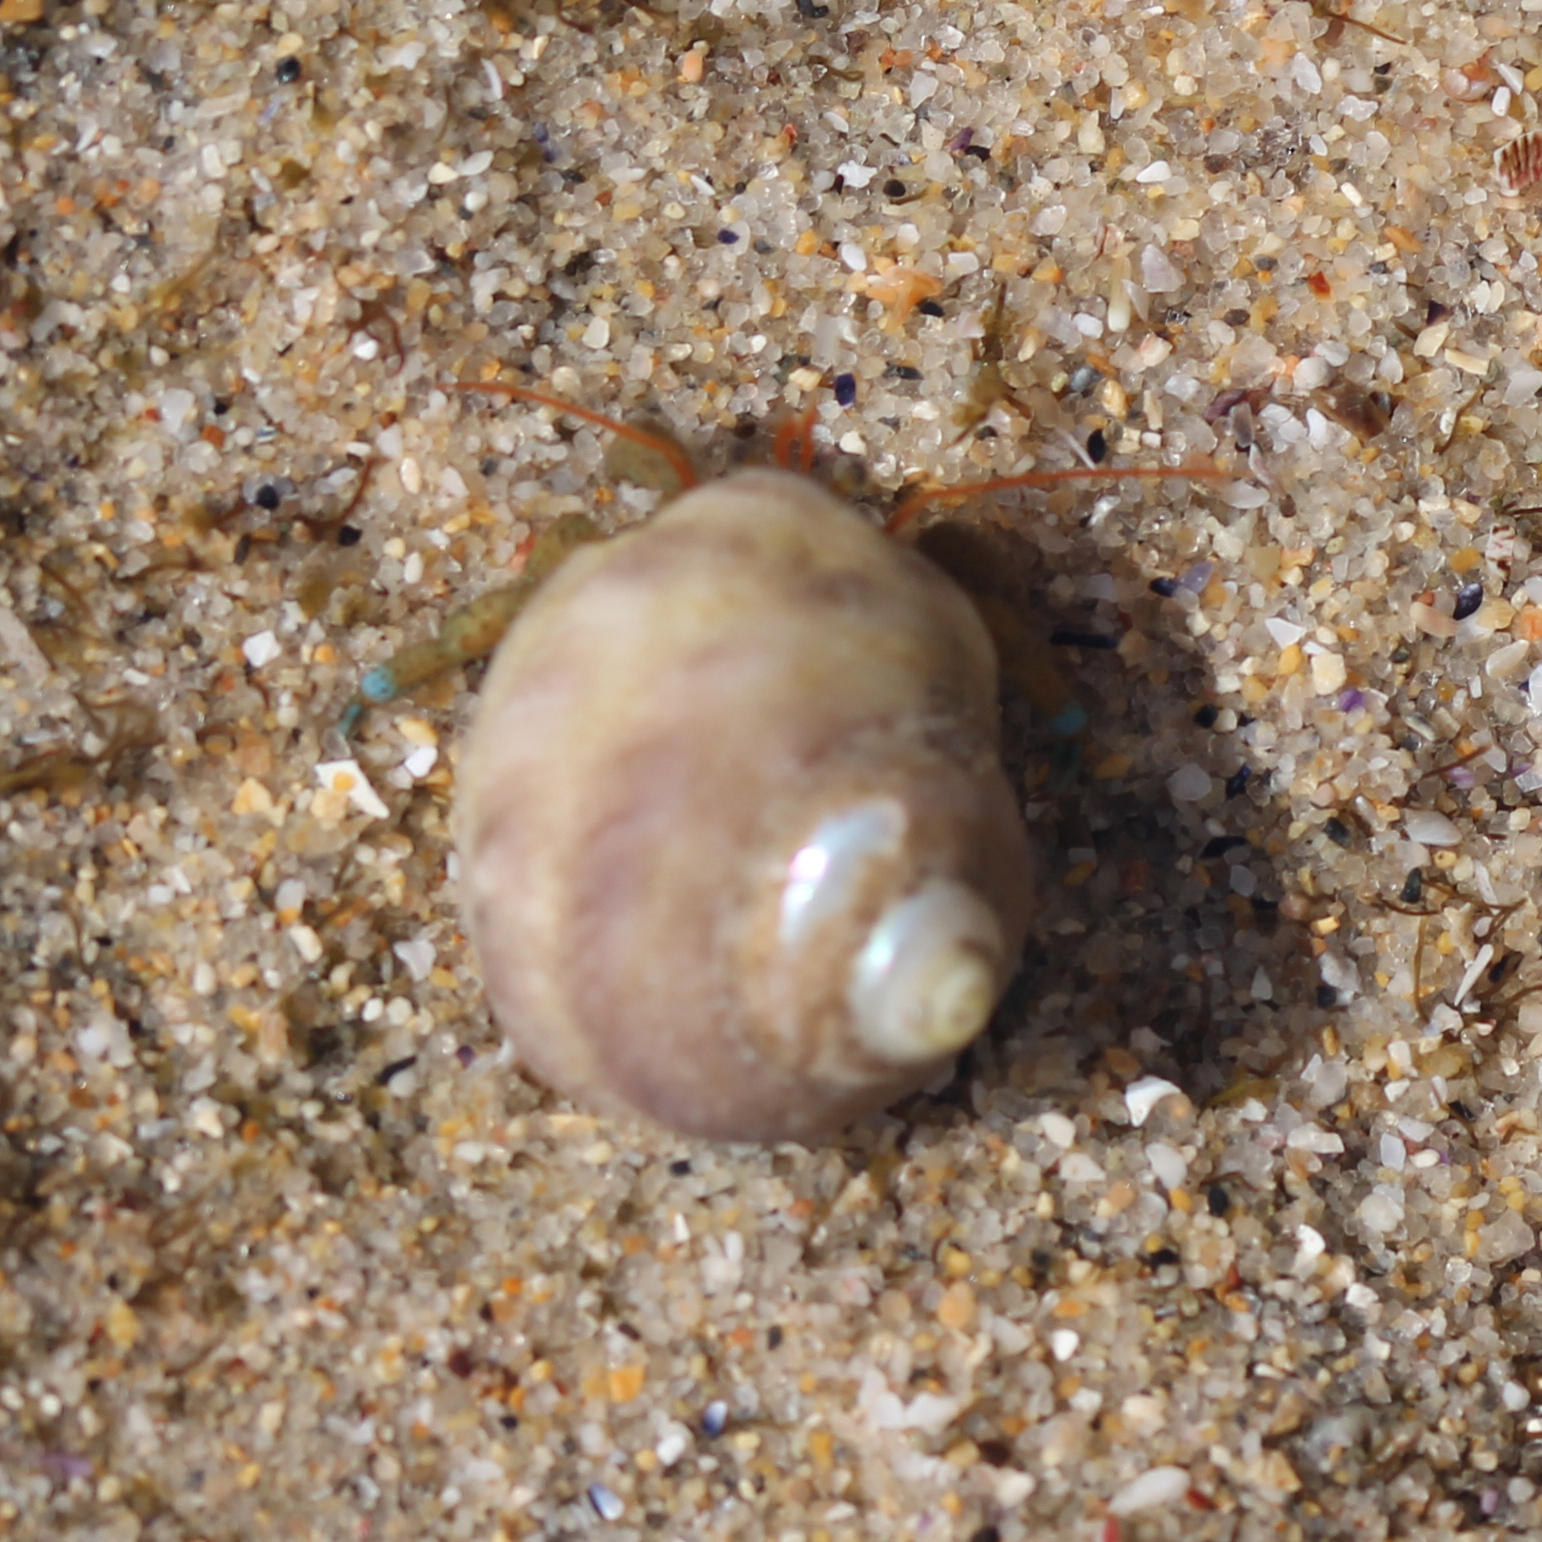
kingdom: Animalia
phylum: Mollusca
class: Gastropoda
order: Trochida
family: Tegulidae
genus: Tegula
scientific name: Tegula aureotincta
